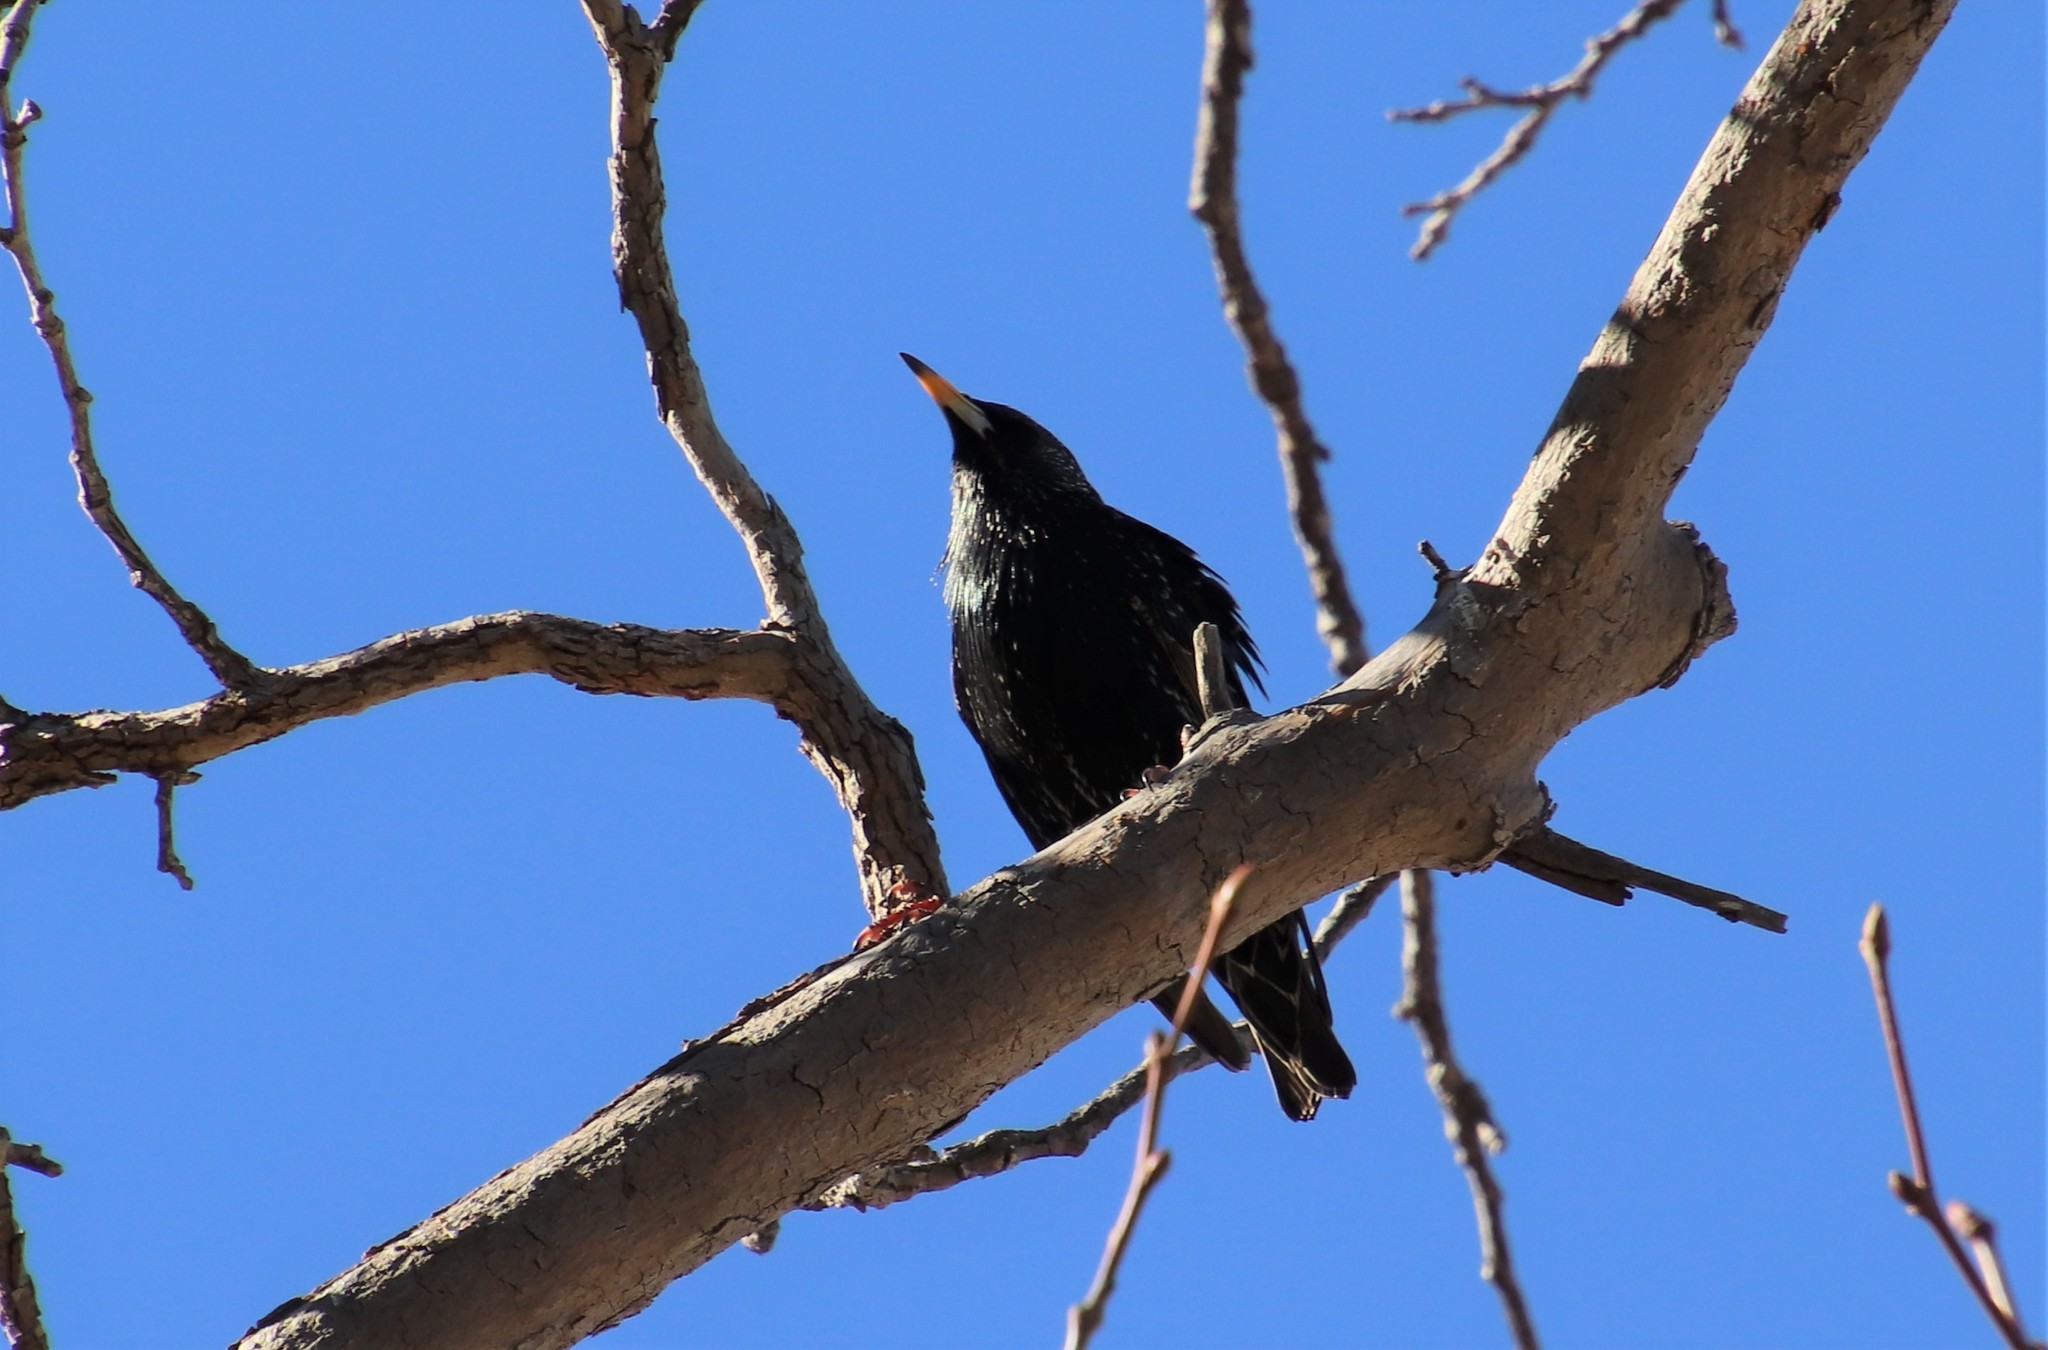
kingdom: Animalia
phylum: Chordata
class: Aves
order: Passeriformes
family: Sturnidae
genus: Sturnus
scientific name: Sturnus vulgaris
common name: Common starling
